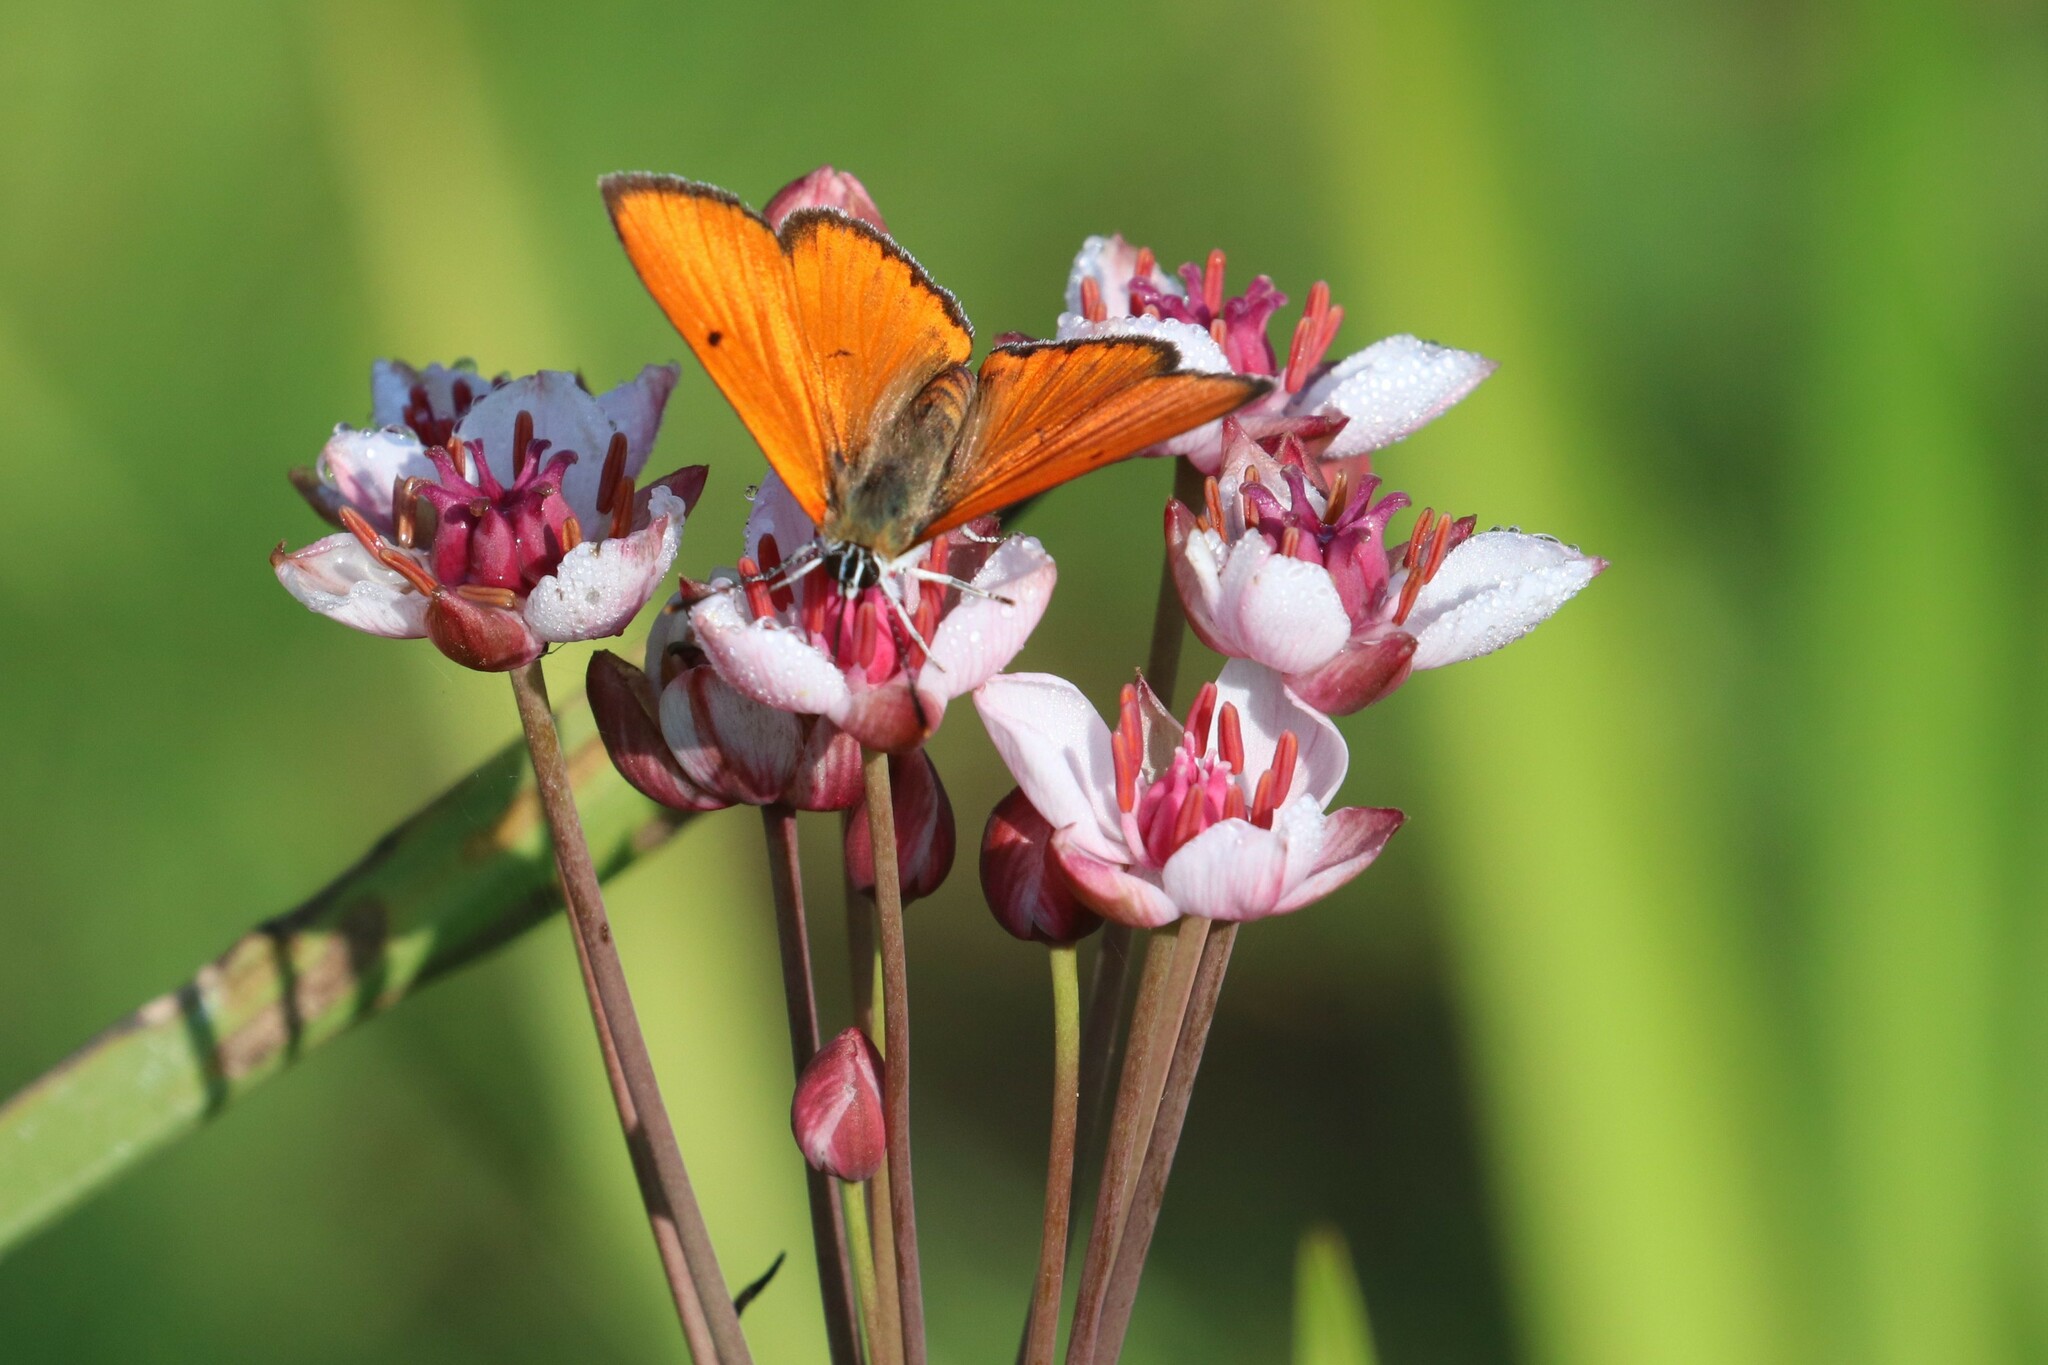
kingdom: Plantae
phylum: Tracheophyta
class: Liliopsida
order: Alismatales
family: Butomaceae
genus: Butomus
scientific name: Butomus umbellatus
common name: Flowering-rush
